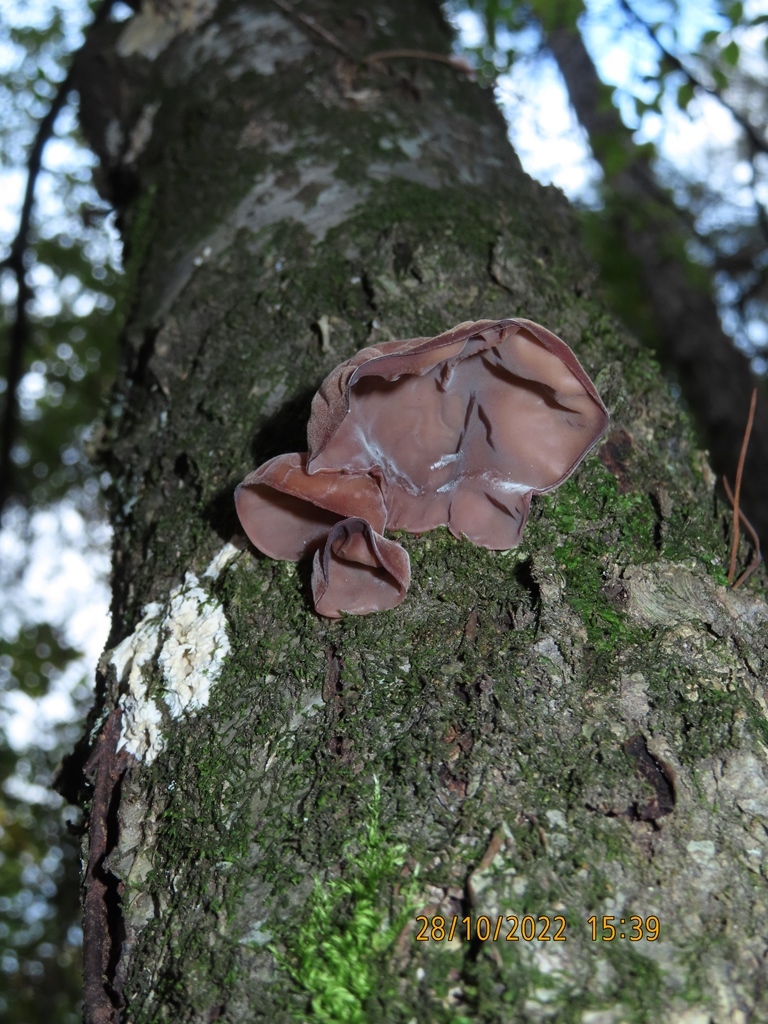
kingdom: Fungi
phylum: Basidiomycota
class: Agaricomycetes
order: Auriculariales
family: Auriculariaceae
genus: Auricularia
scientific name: Auricularia auricula-judae
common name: Jelly ear
